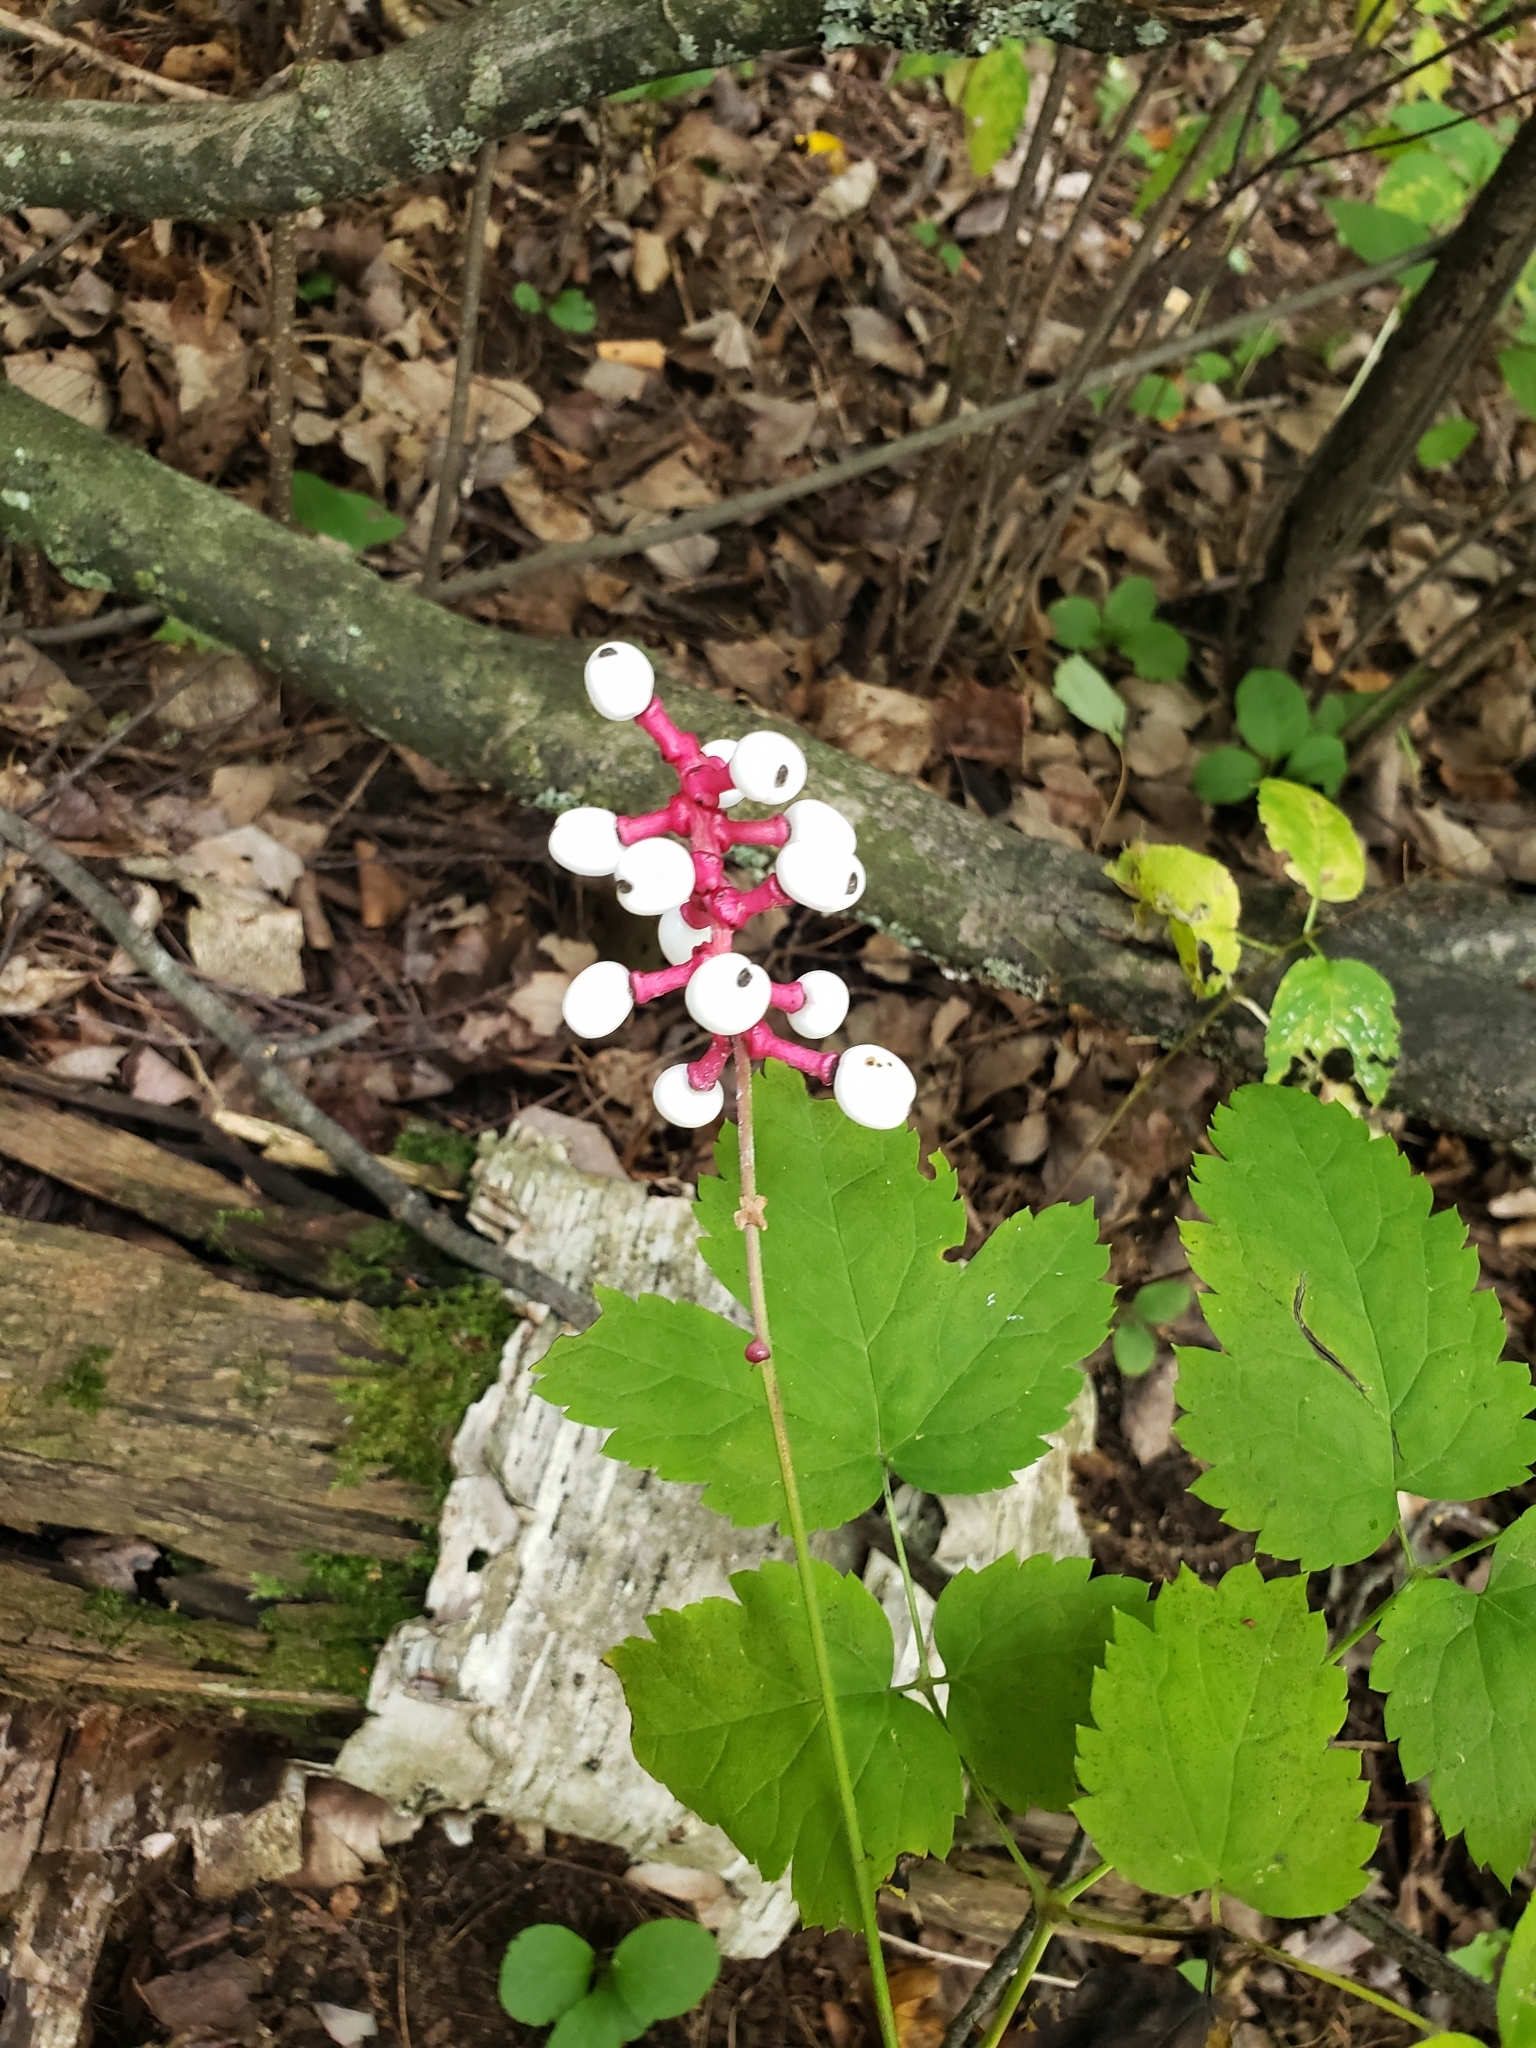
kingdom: Plantae
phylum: Tracheophyta
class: Magnoliopsida
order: Ranunculales
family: Ranunculaceae
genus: Actaea
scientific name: Actaea pachypoda
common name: Doll's-eyes
